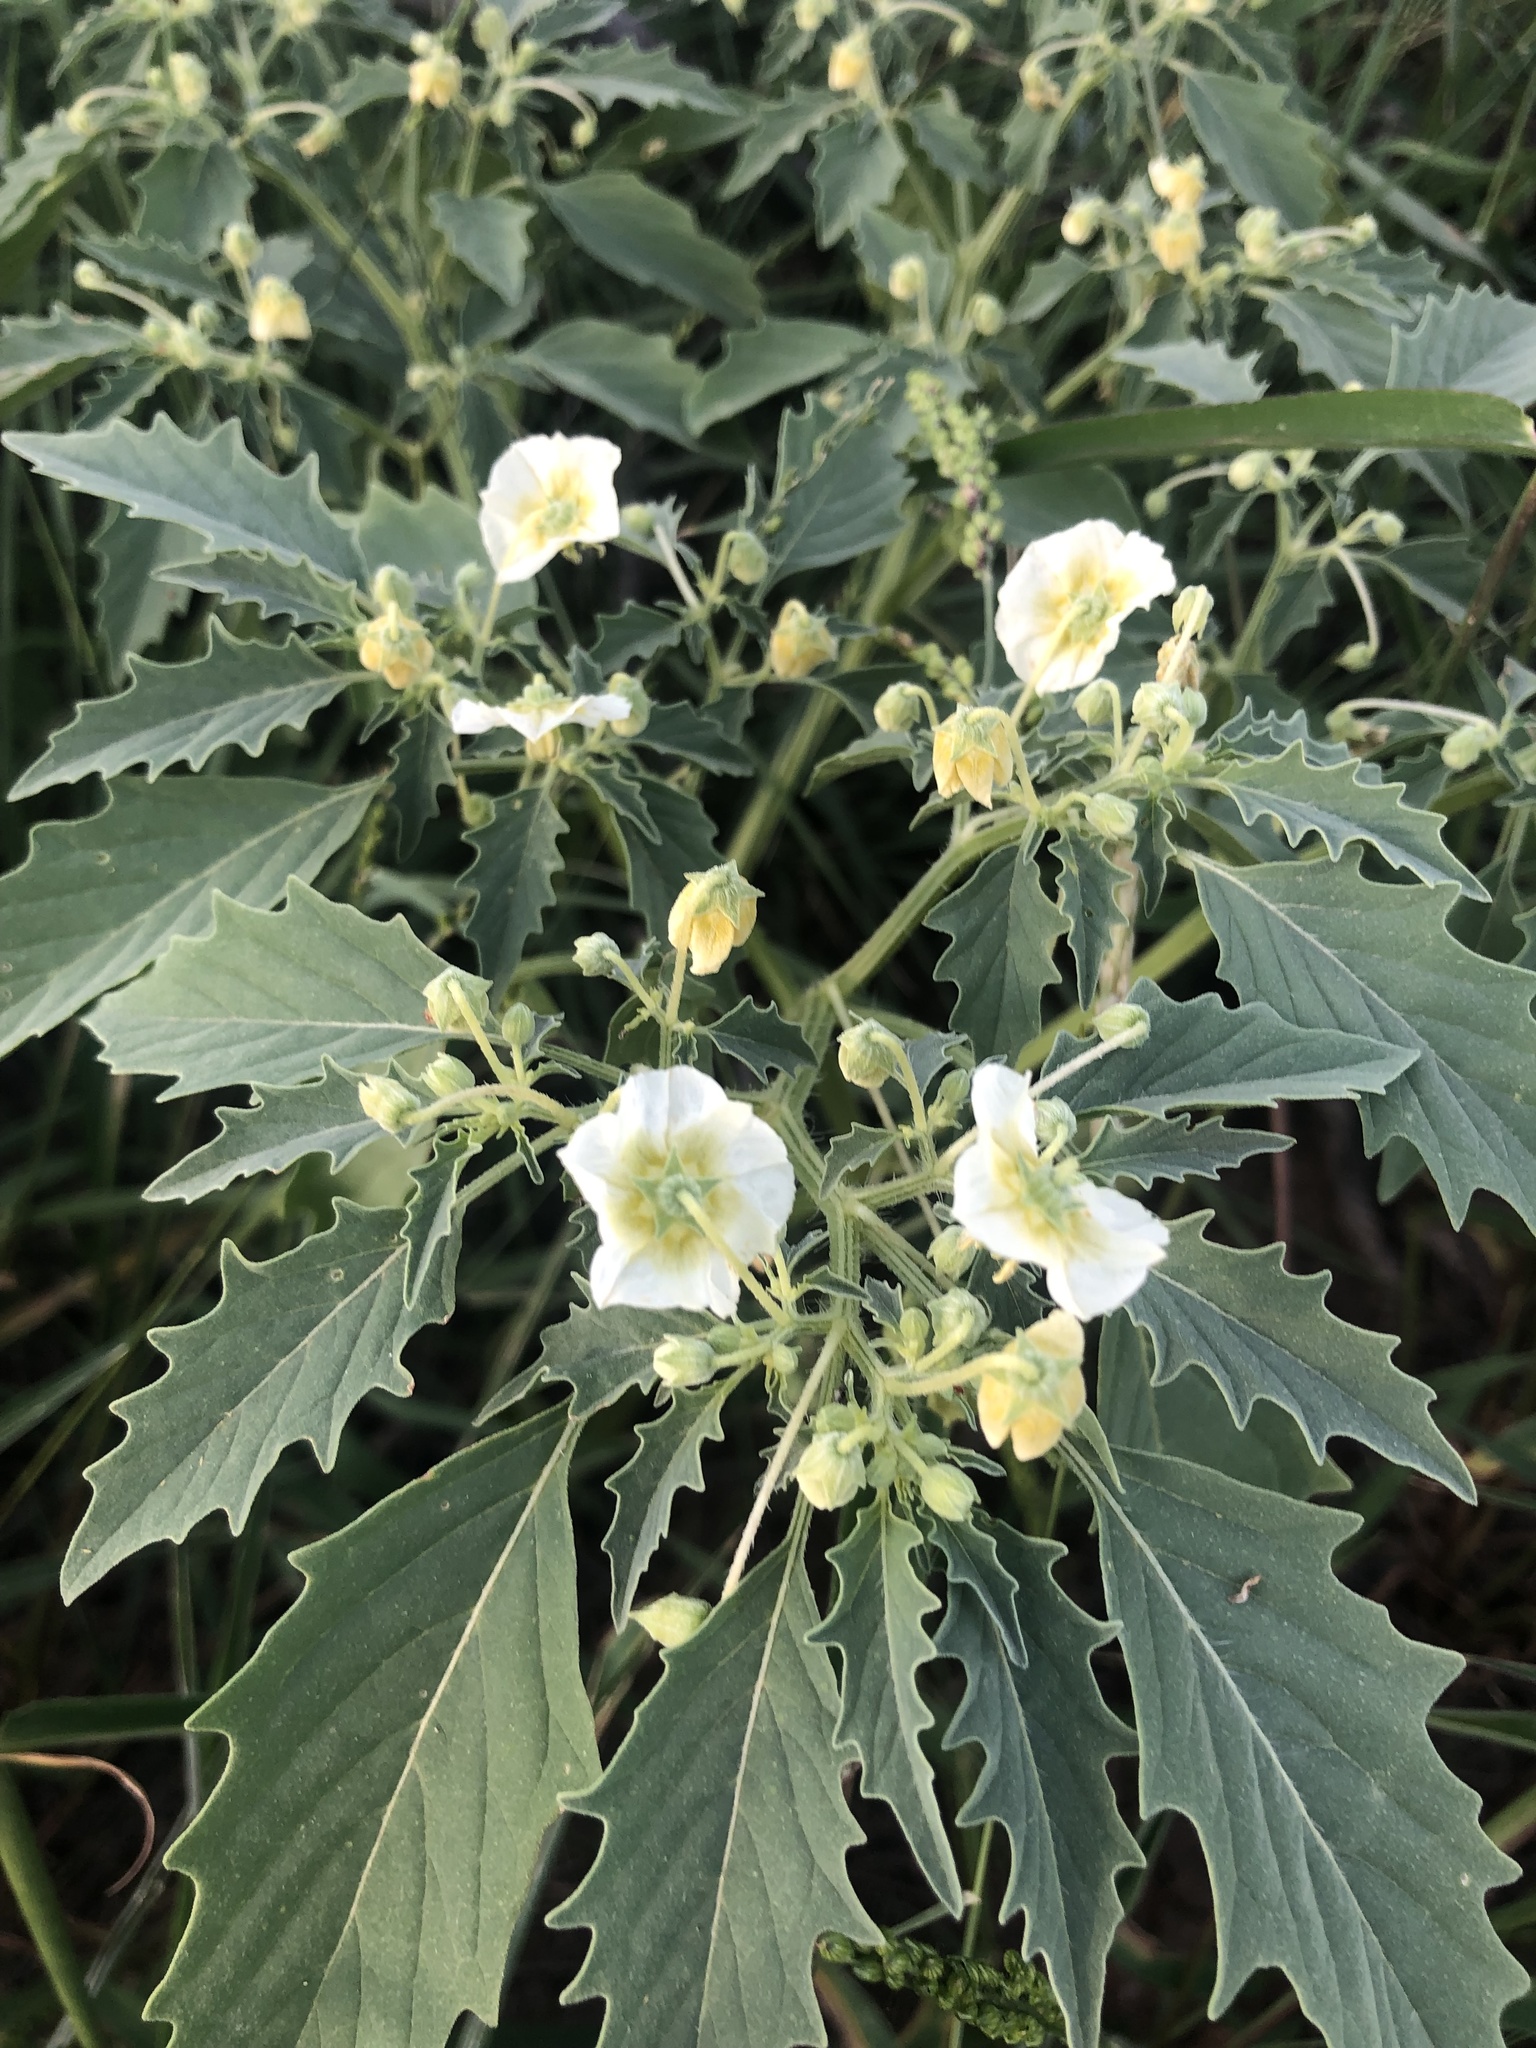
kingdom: Plantae
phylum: Tracheophyta
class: Magnoliopsida
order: Solanales
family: Solanaceae
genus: Physalis
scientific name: Physalis acutifolia
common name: Wright's ground-cherry
